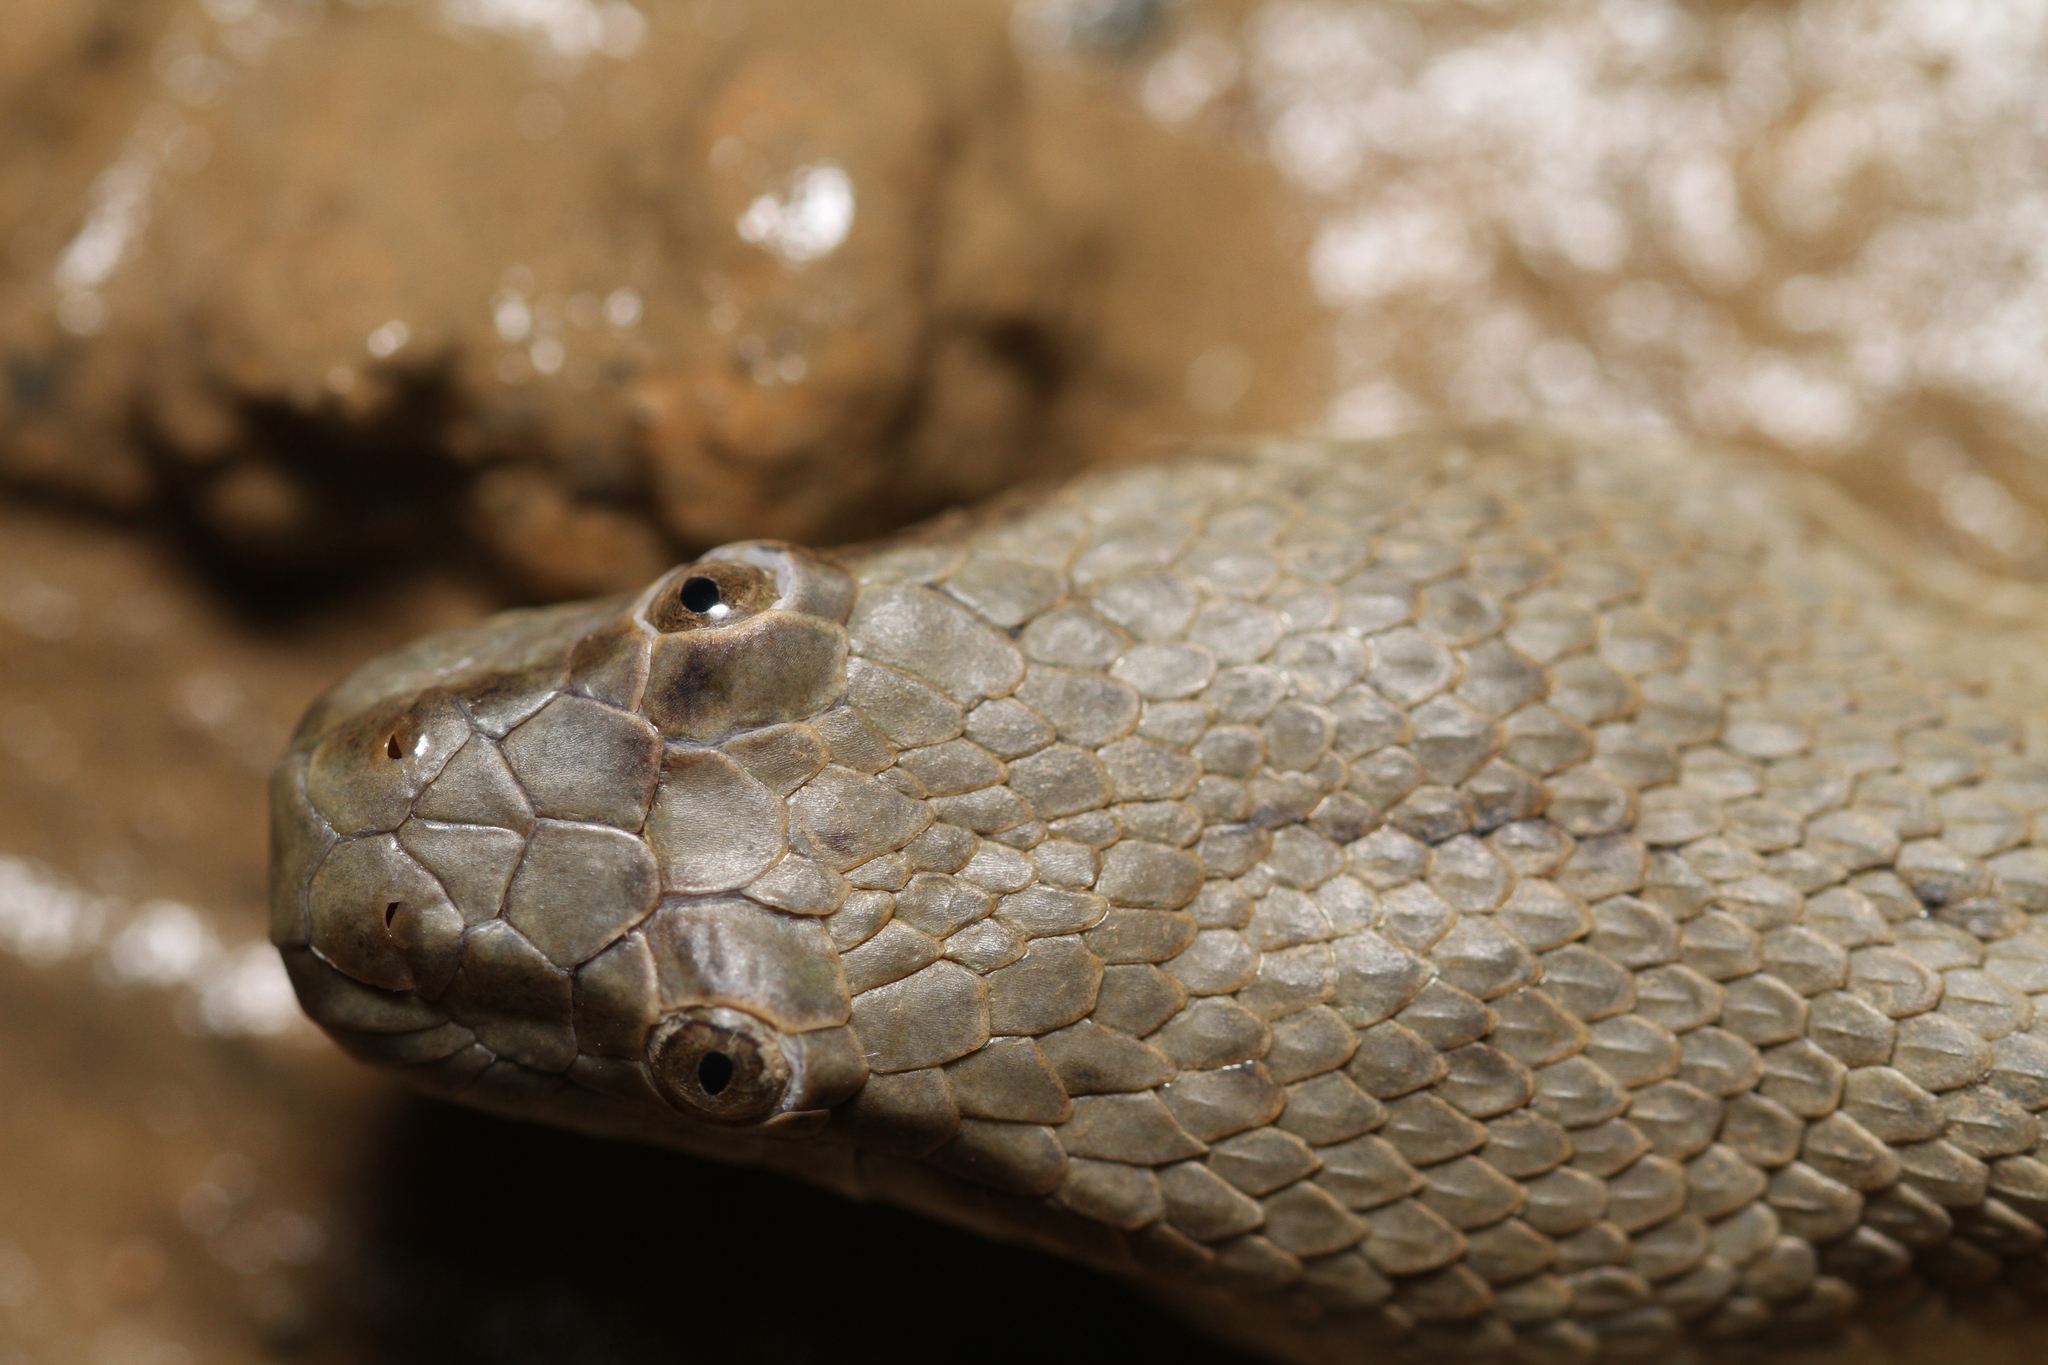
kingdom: Animalia
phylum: Chordata
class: Squamata
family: Homalopsidae
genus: Cerberus
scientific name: Cerberus schneiderii
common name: Southeast asian bockadam
